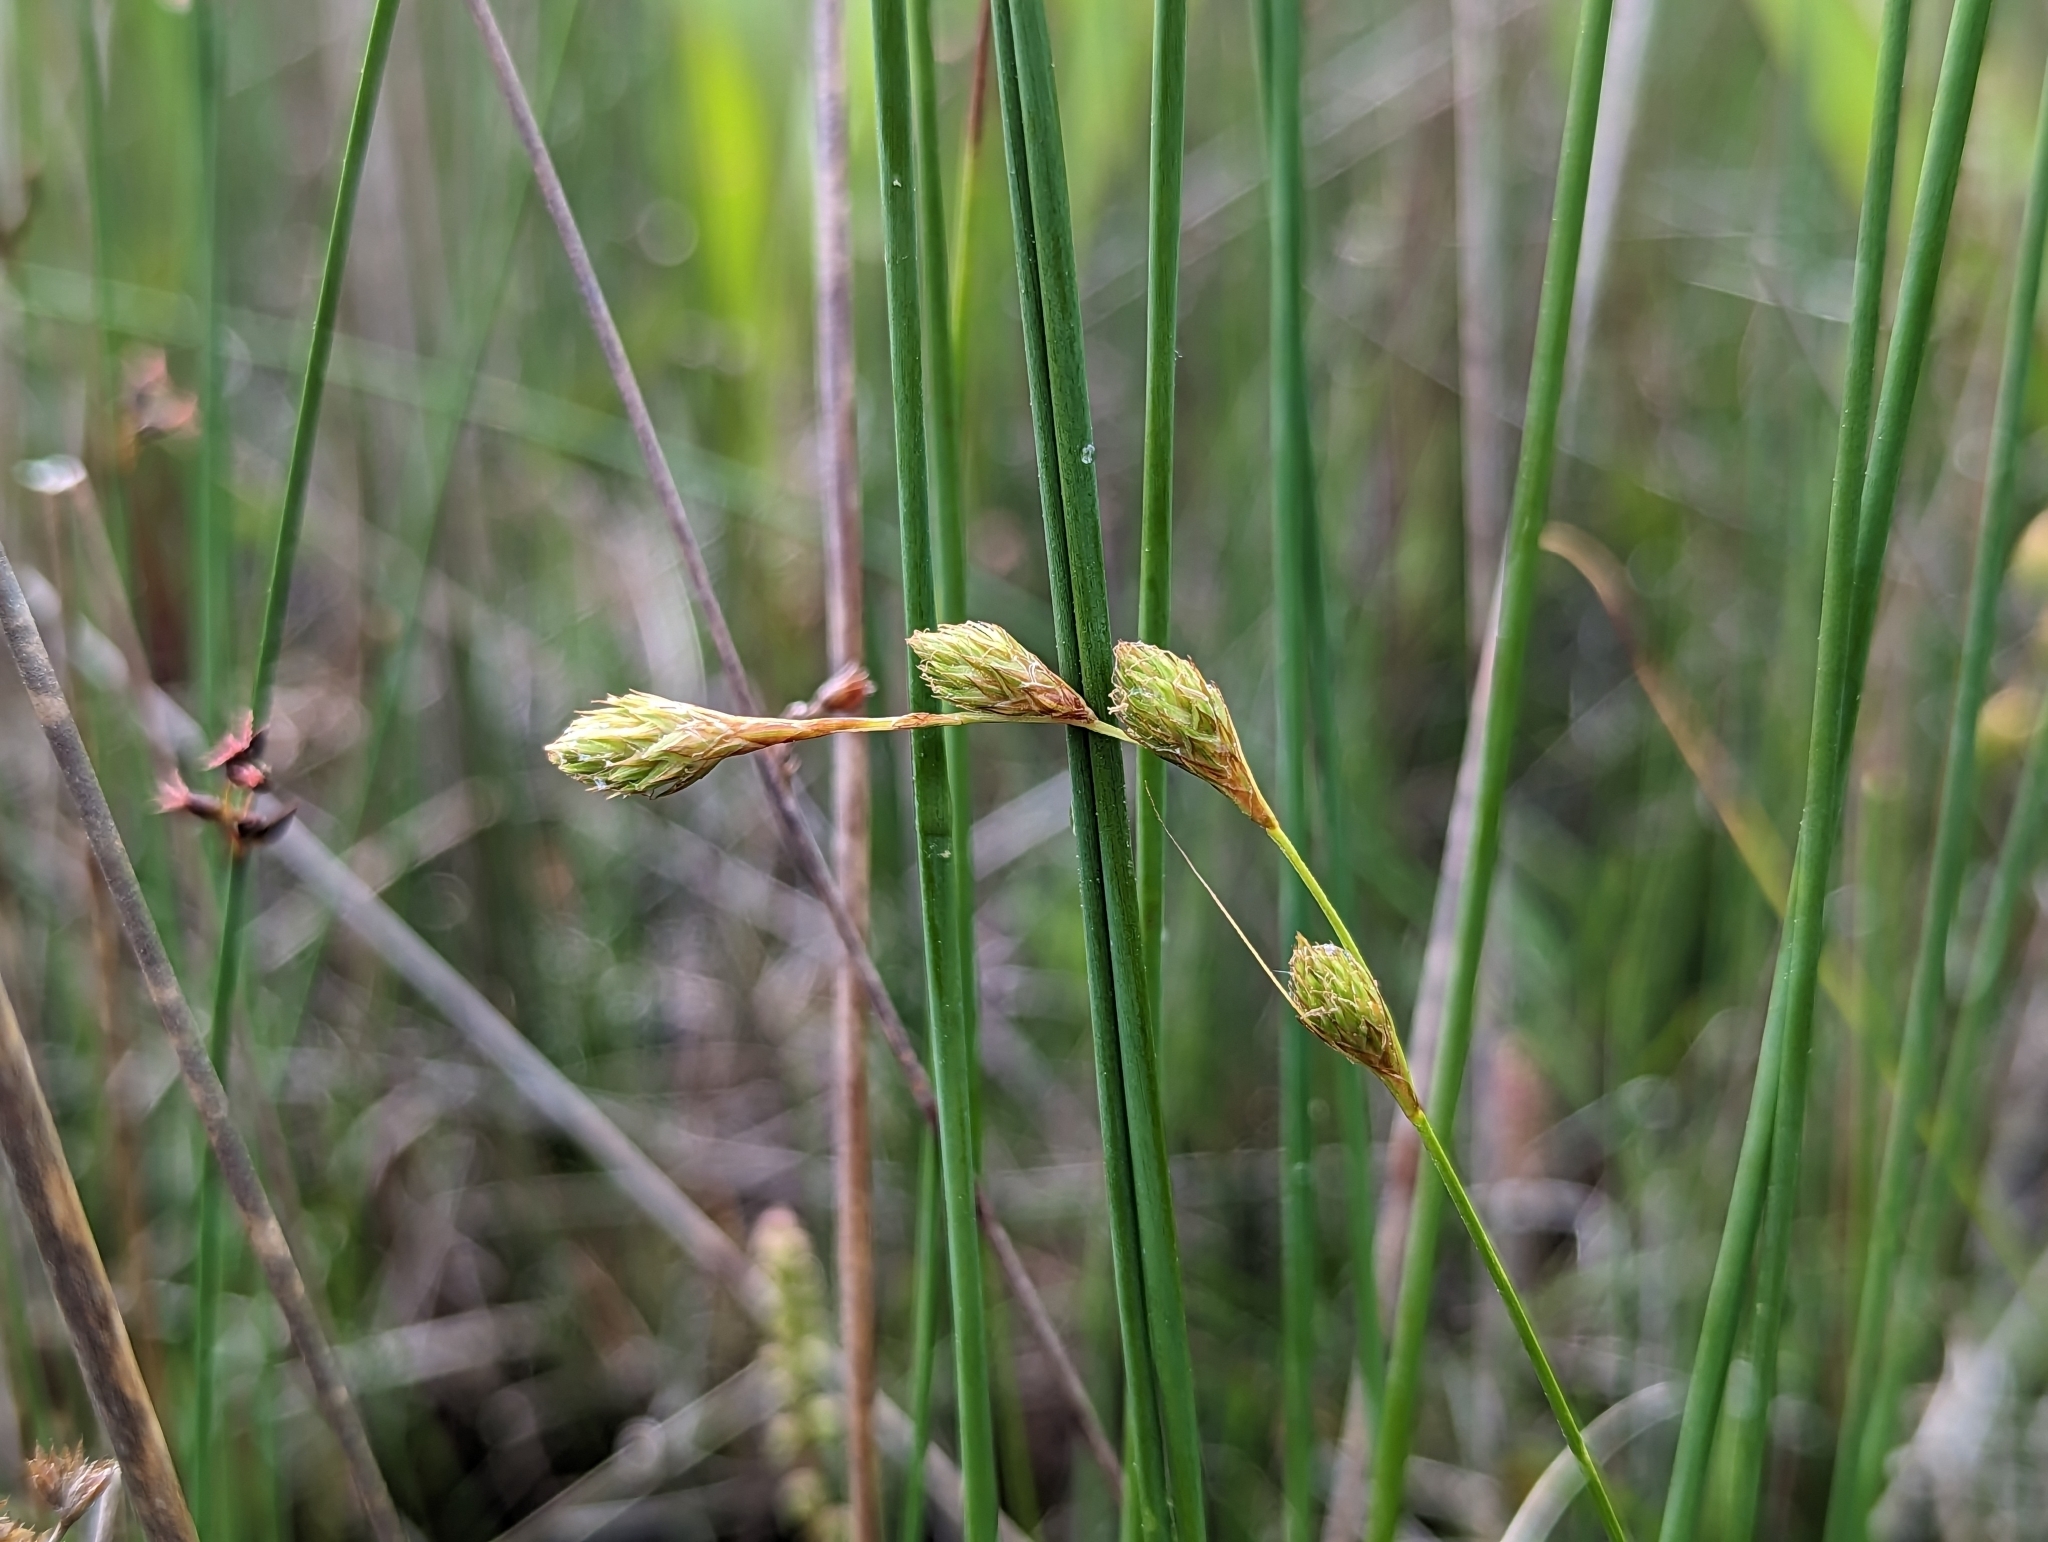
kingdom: Plantae
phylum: Tracheophyta
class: Liliopsida
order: Poales
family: Cyperaceae
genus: Carex
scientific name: Carex hormathodes
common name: Marsh straw sedge
